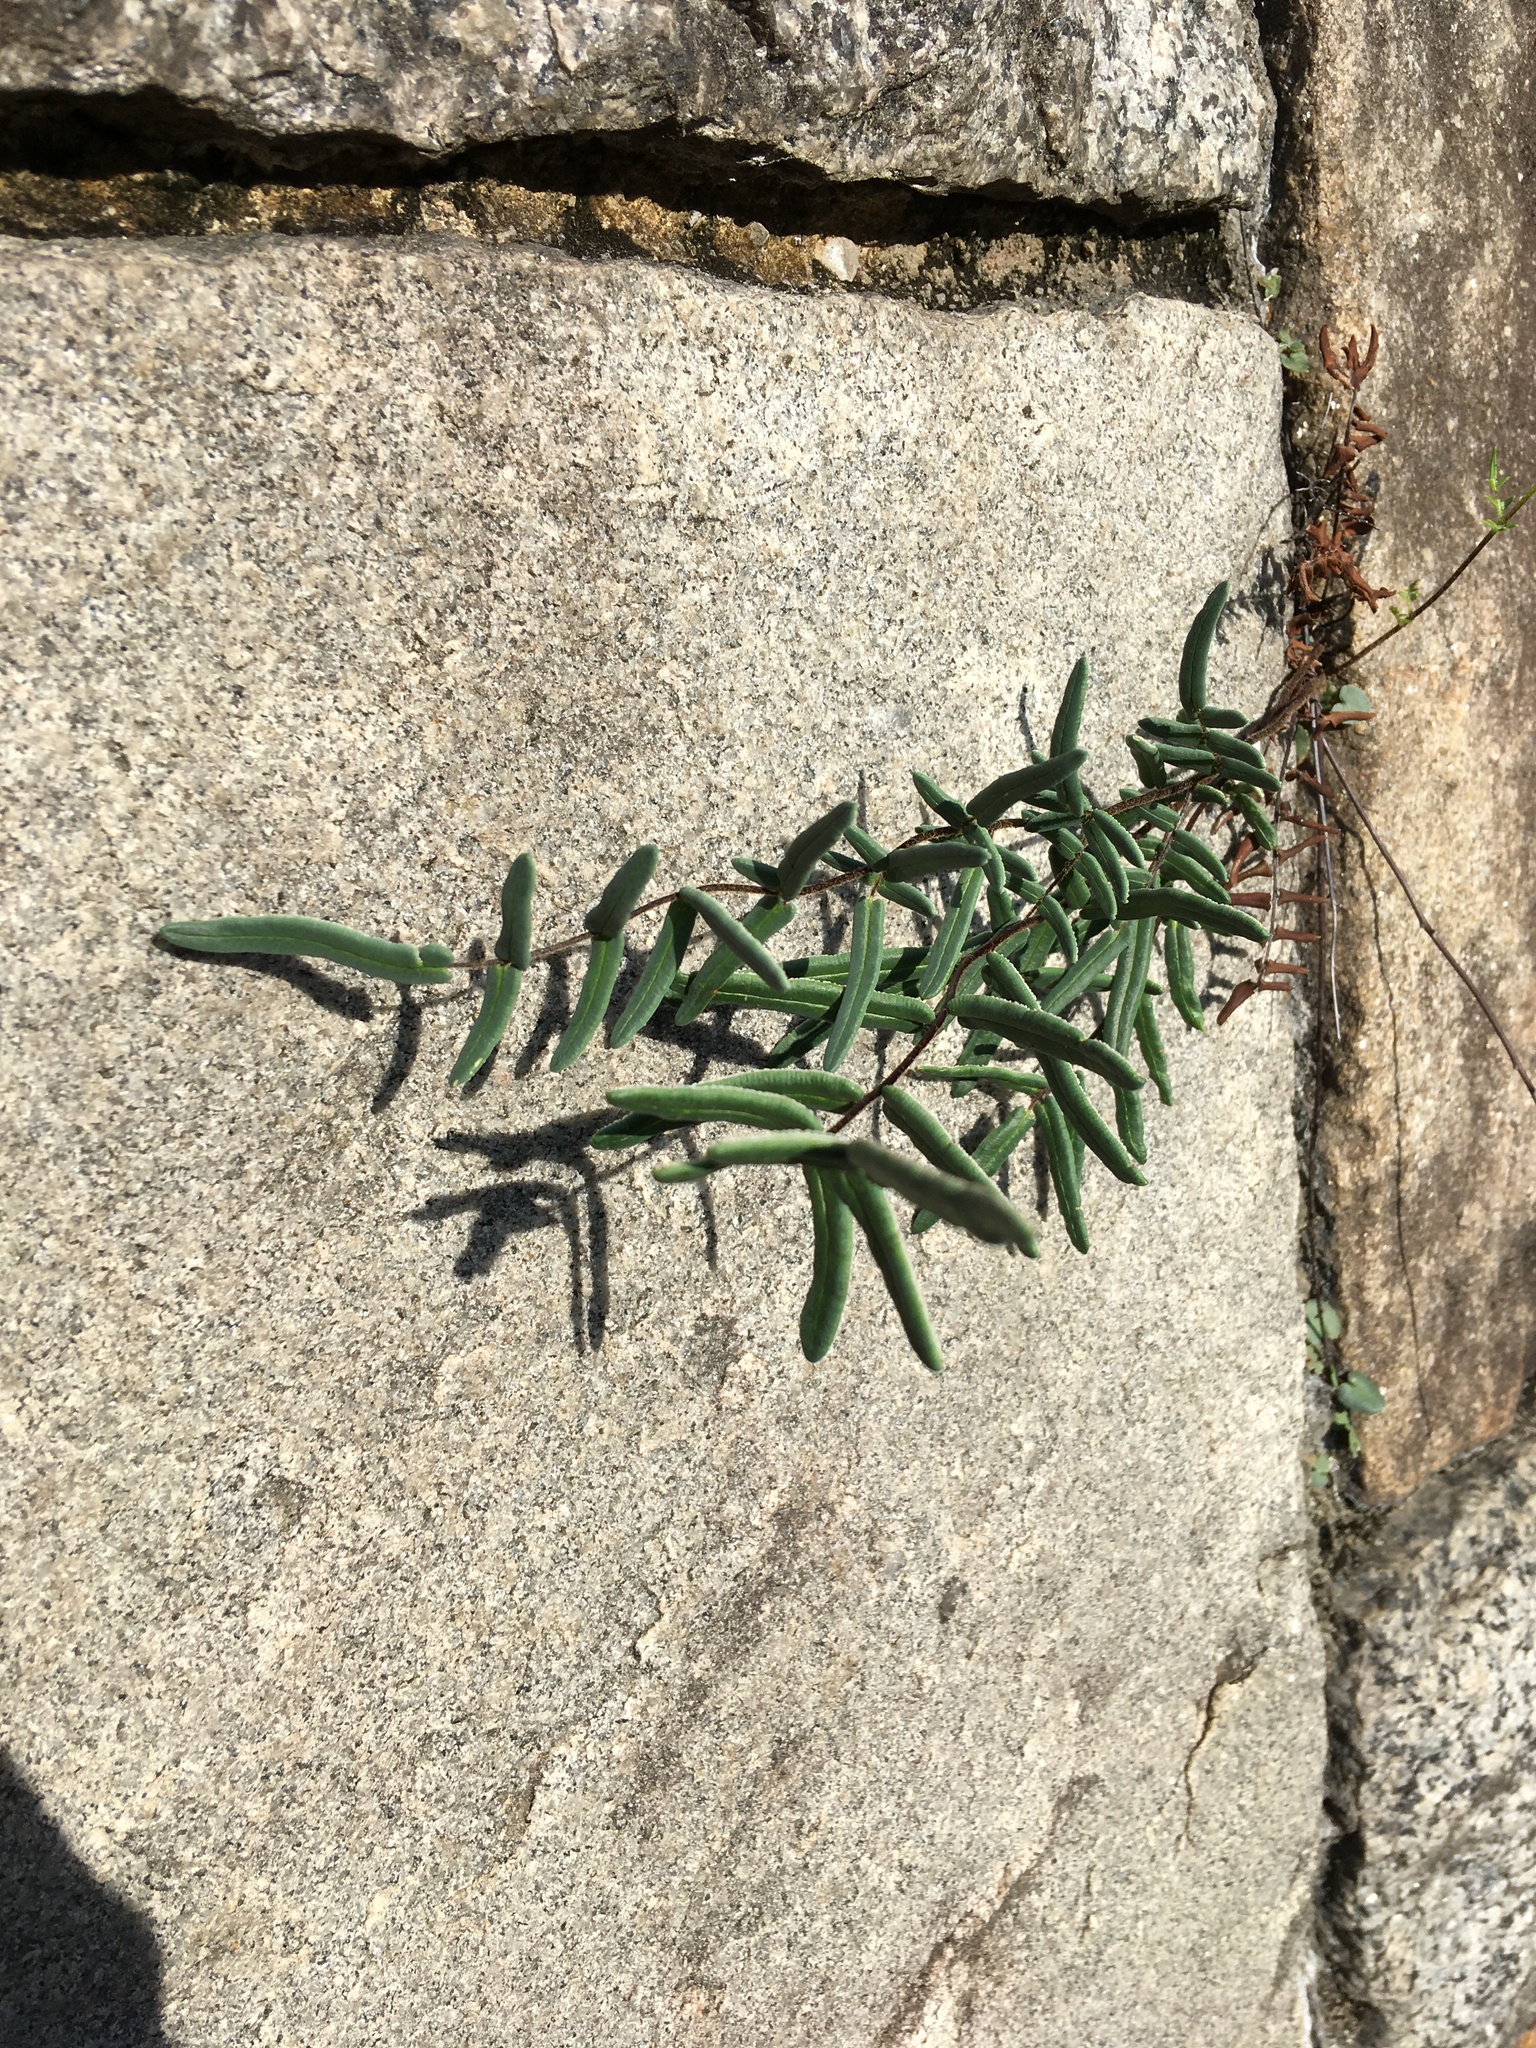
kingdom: Plantae
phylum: Tracheophyta
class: Polypodiopsida
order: Polypodiales
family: Pteridaceae
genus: Pellaea
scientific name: Pellaea atropurpurea
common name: Hairy cliffbrake
